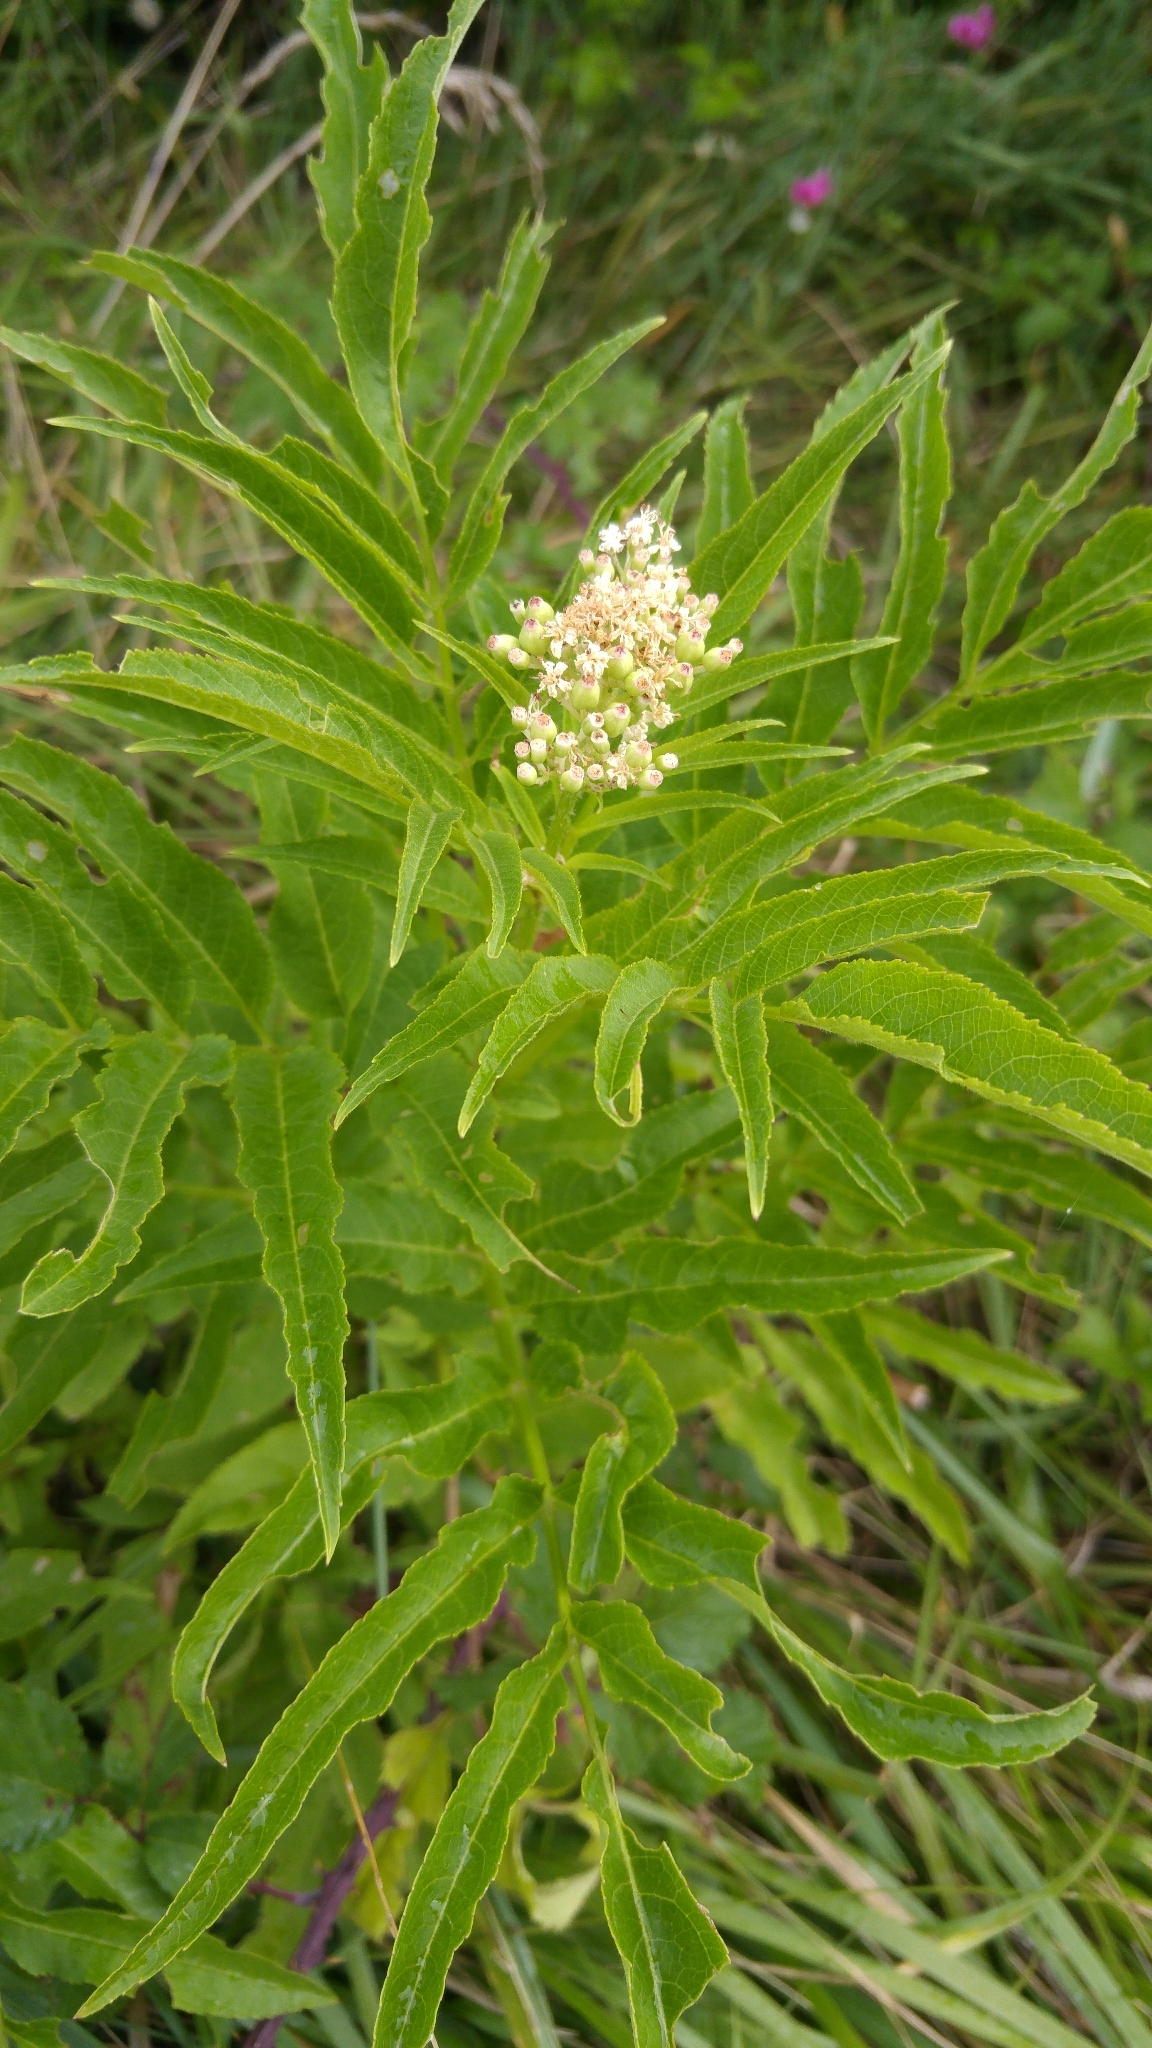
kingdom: Plantae
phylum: Tracheophyta
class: Magnoliopsida
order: Dipsacales
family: Viburnaceae
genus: Sambucus
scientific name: Sambucus ebulus
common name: Dwarf elder
